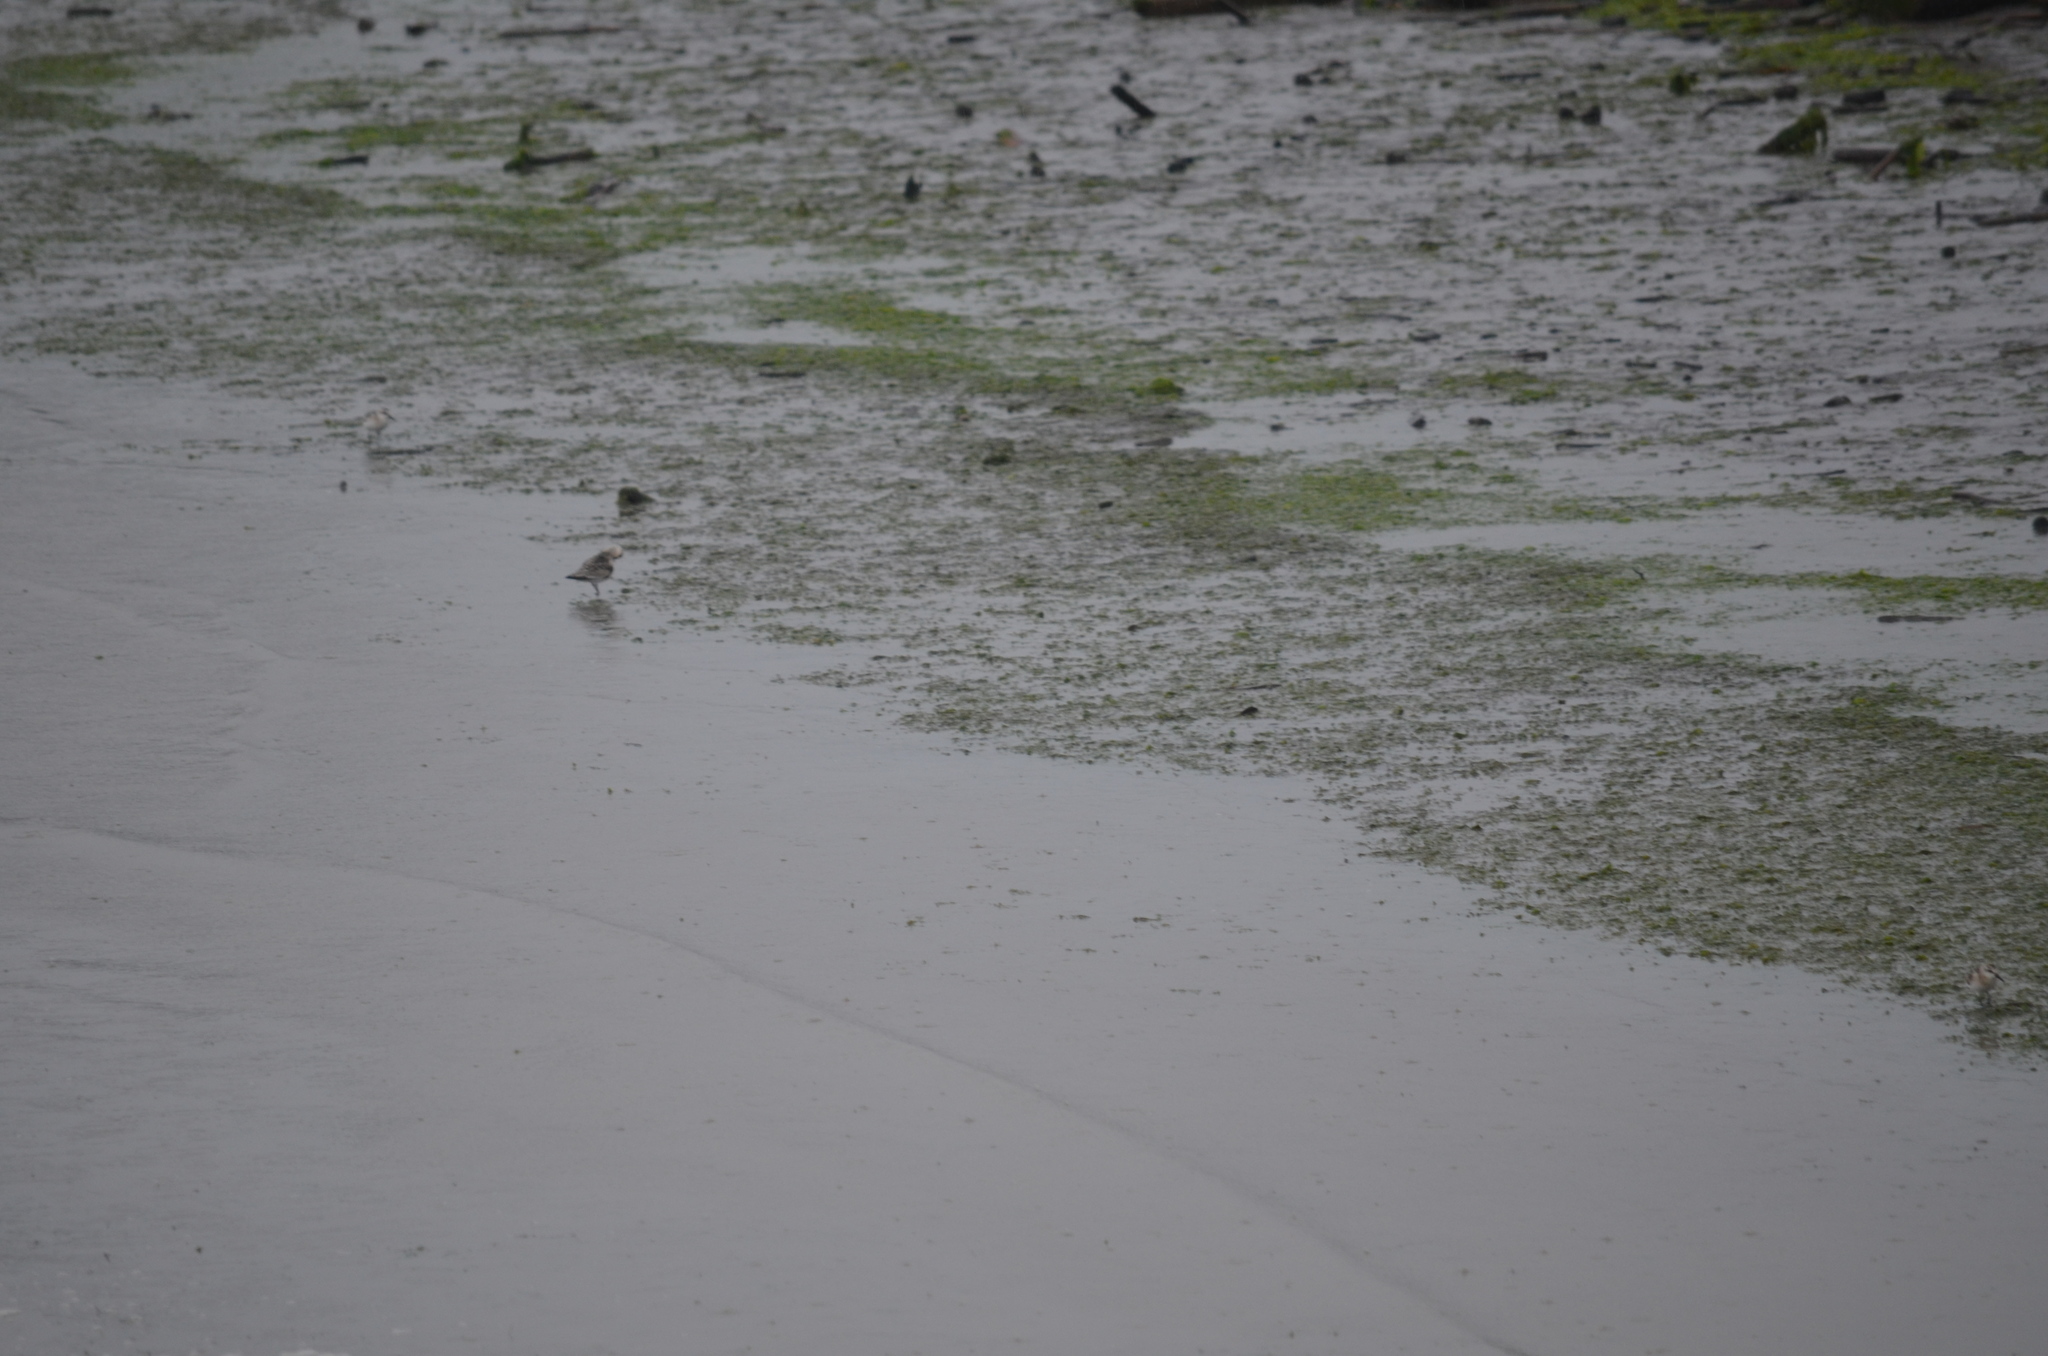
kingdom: Animalia
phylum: Chordata
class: Aves
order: Charadriiformes
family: Scolopacidae
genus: Calidris
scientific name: Calidris alba
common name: Sanderling
